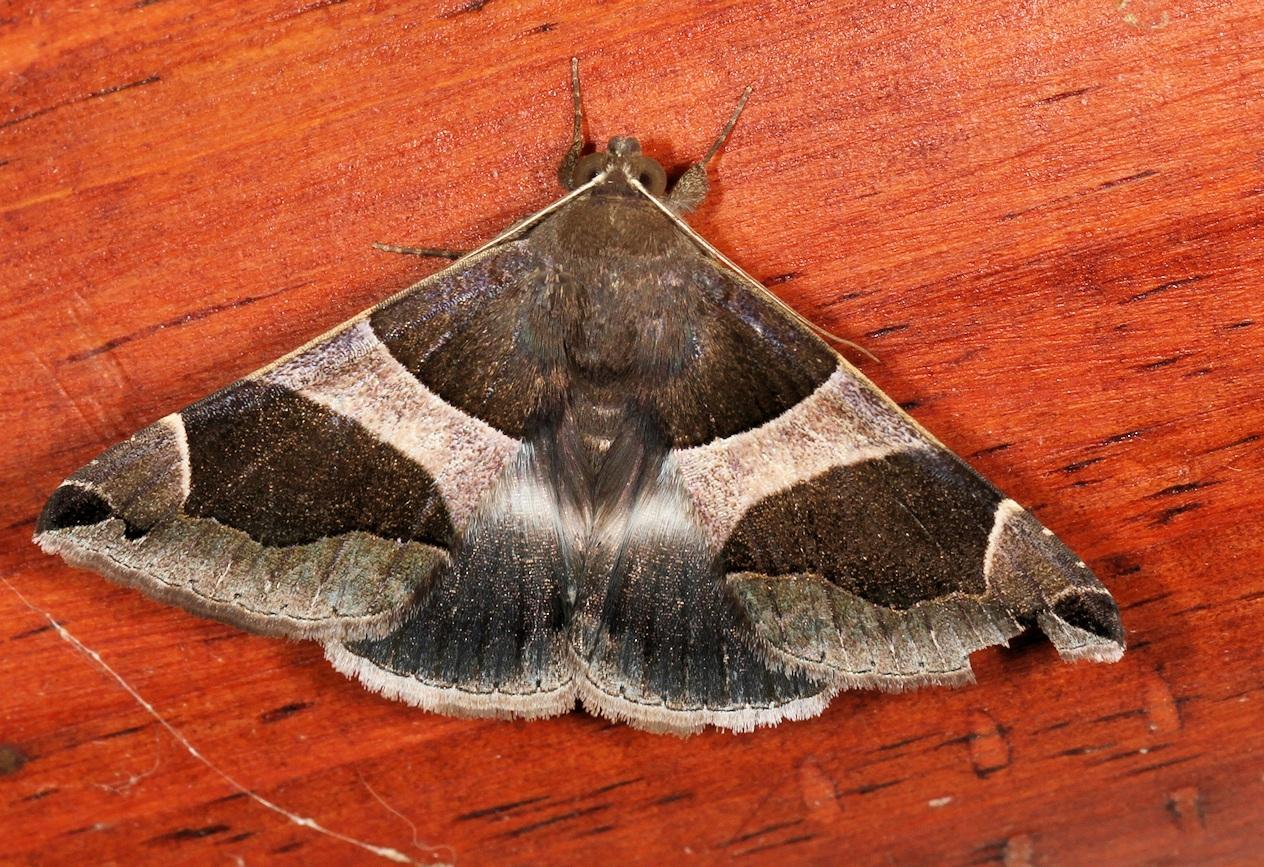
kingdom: Animalia
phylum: Arthropoda
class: Insecta
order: Lepidoptera
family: Erebidae
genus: Dysgonia
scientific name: Dysgonia torrida
